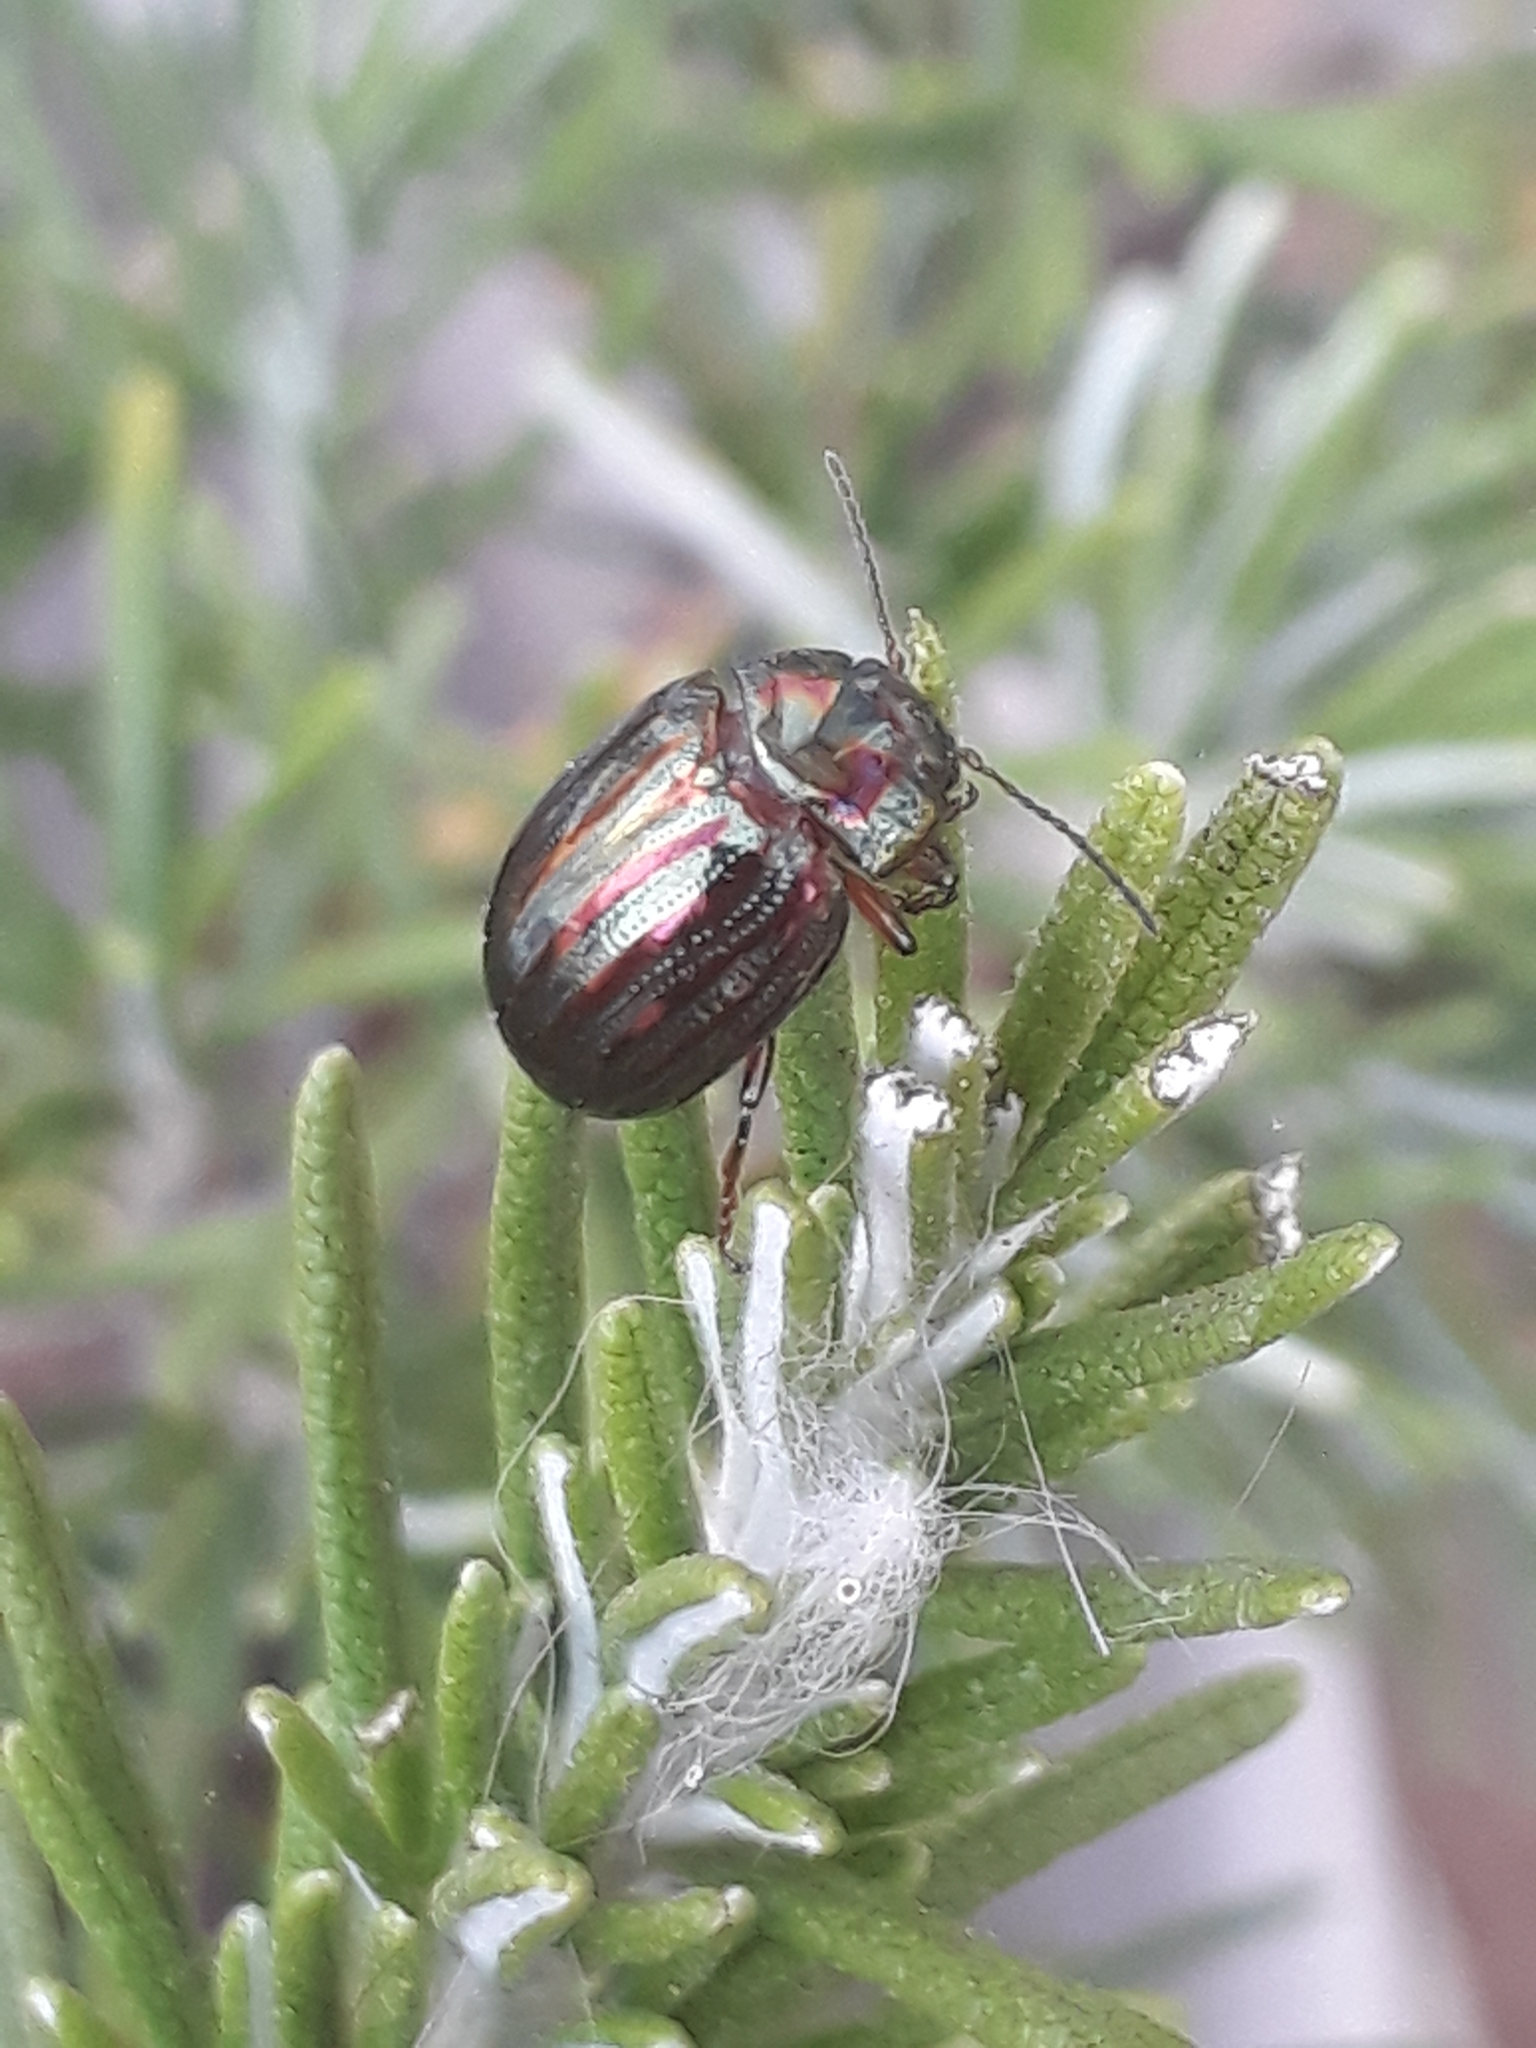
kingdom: Animalia
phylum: Arthropoda
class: Insecta
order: Coleoptera
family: Chrysomelidae
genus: Chrysolina
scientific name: Chrysolina americana
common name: Rosemary beetle
